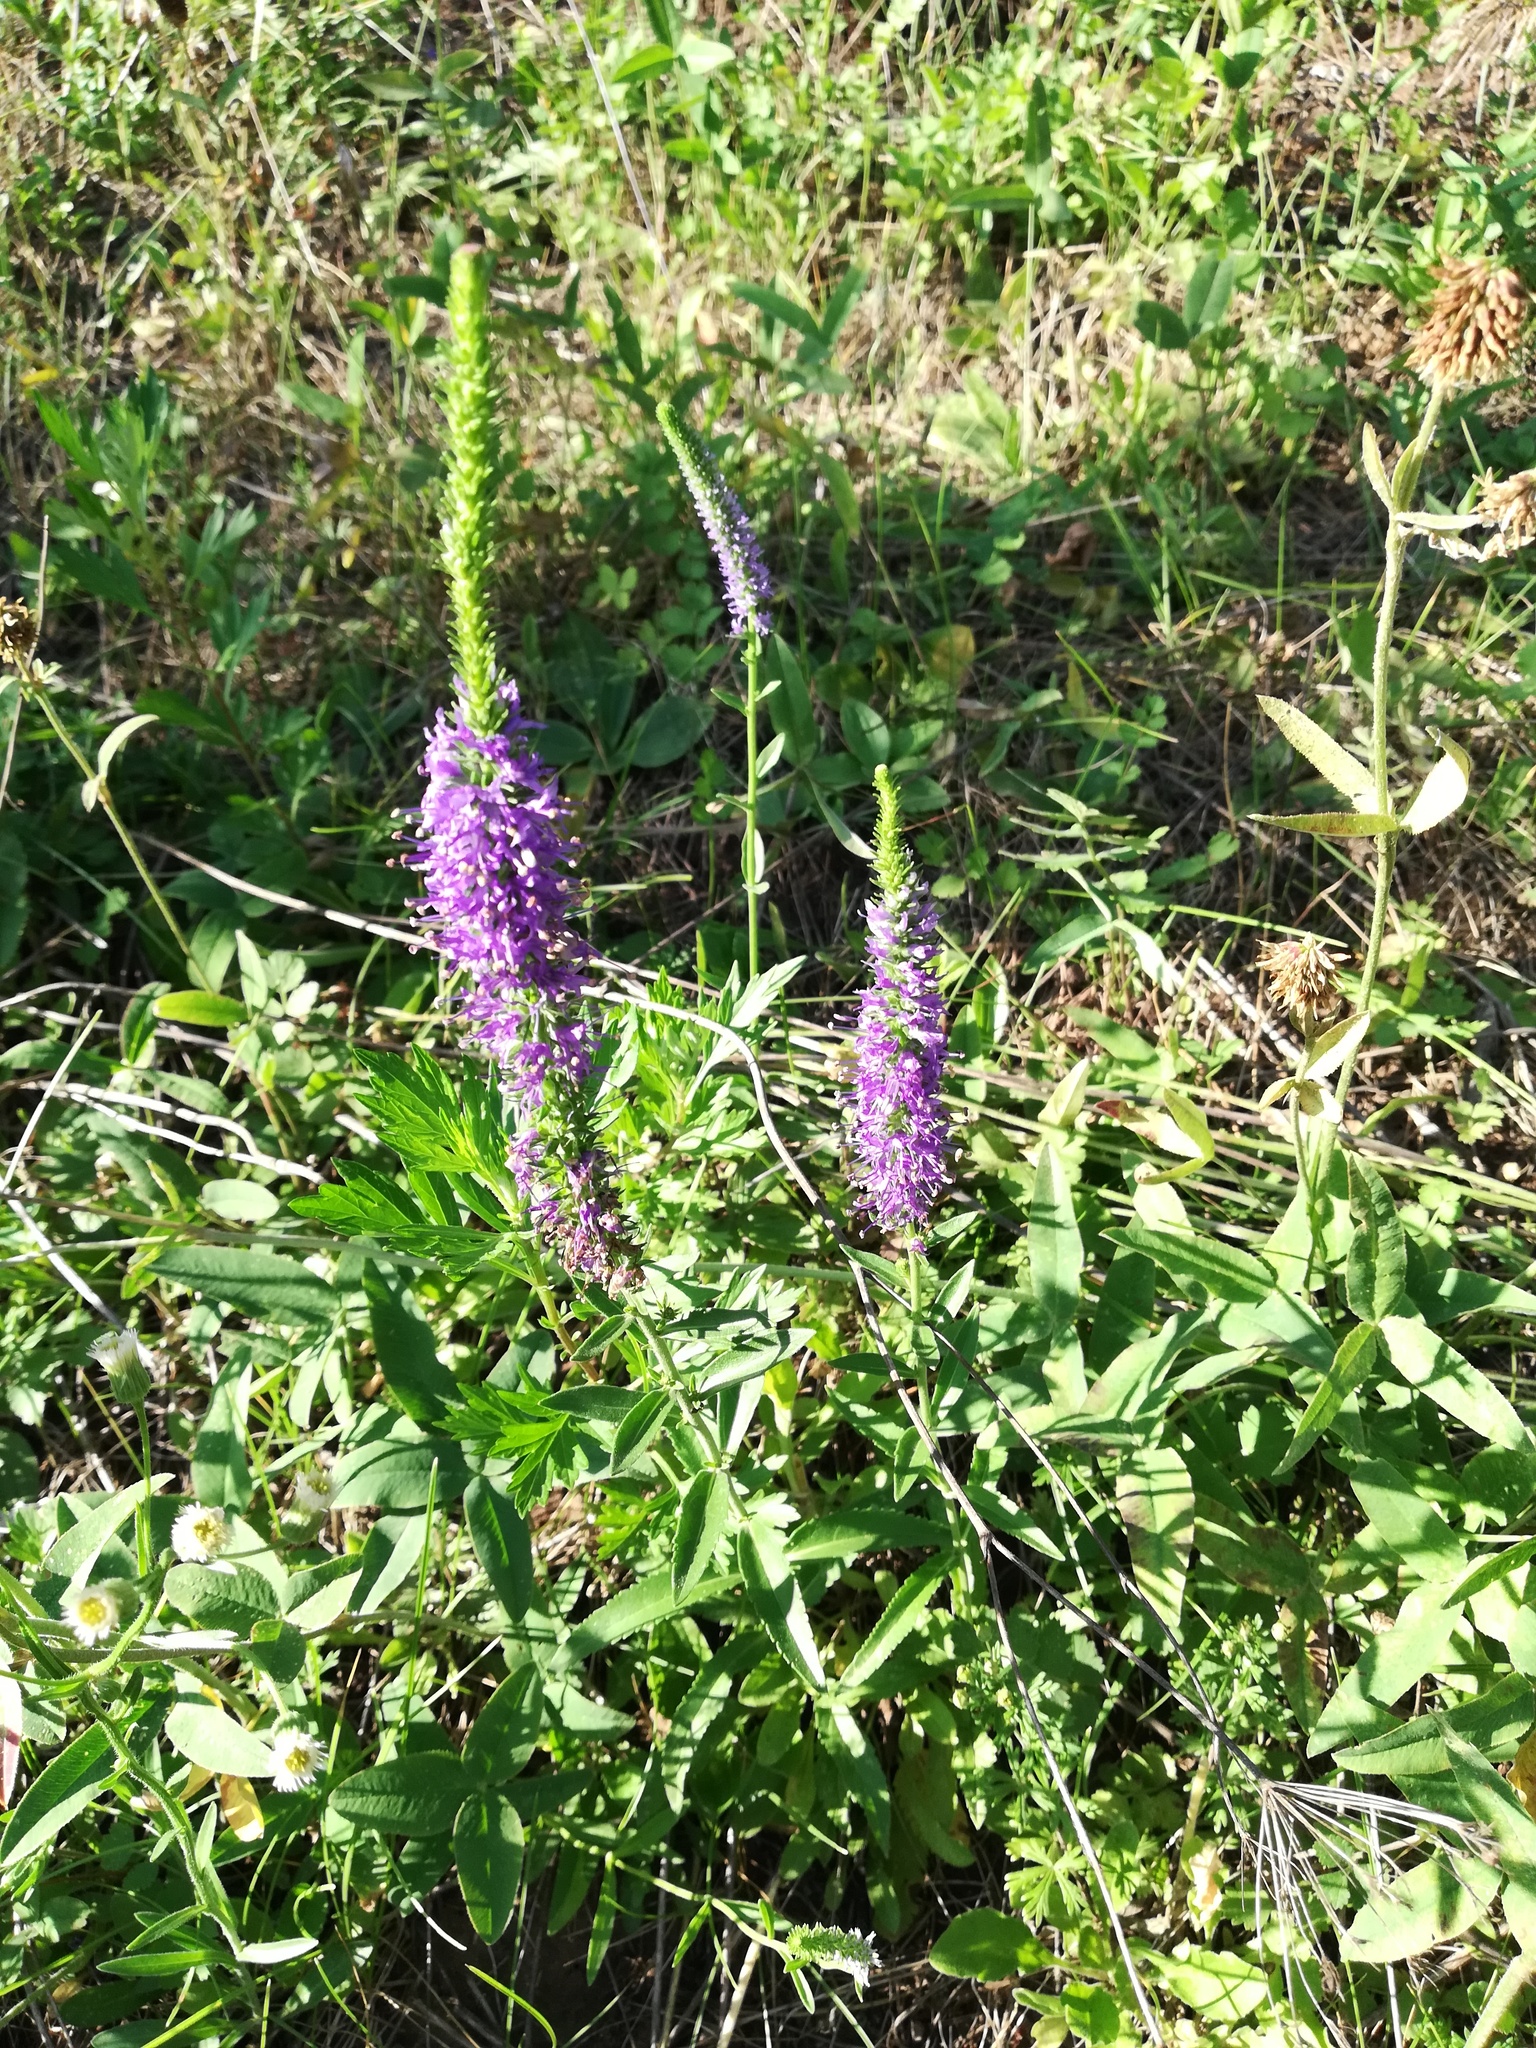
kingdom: Plantae
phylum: Tracheophyta
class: Magnoliopsida
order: Lamiales
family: Plantaginaceae
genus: Veronica
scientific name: Veronica spicata
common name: Spiked speedwell
